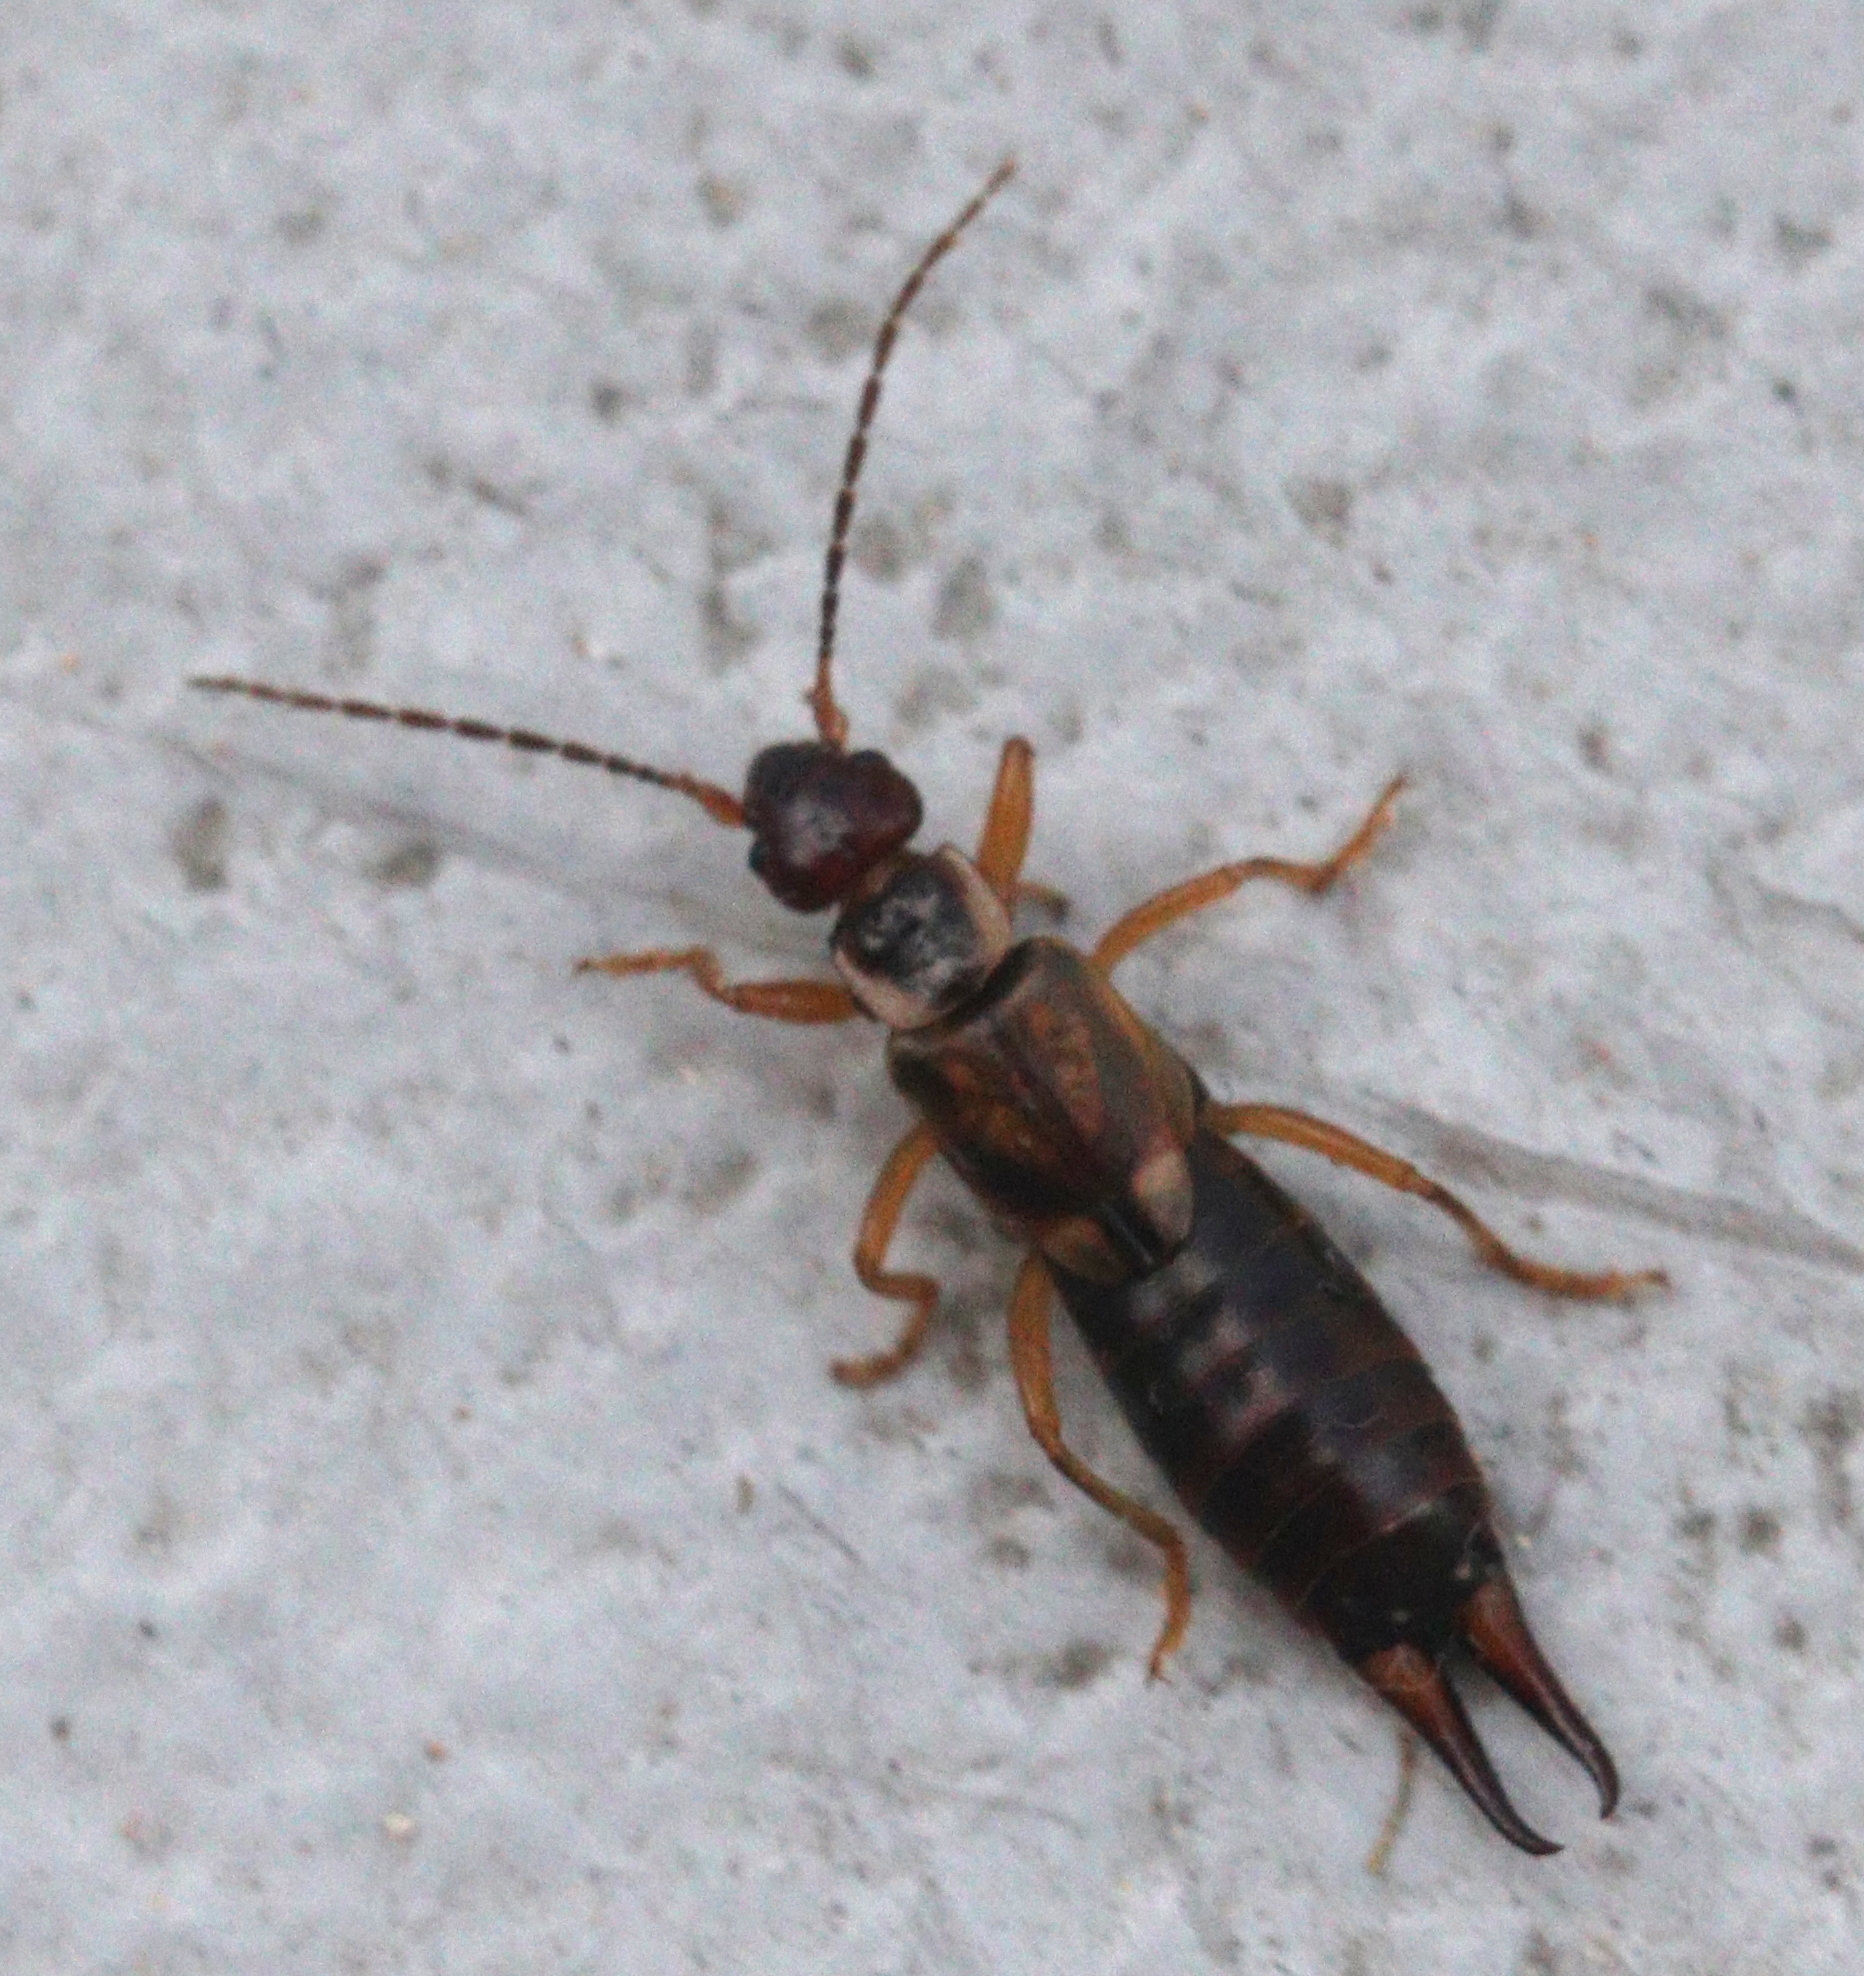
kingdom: Animalia
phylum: Arthropoda
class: Insecta
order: Dermaptera
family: Forficulidae
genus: Forficula
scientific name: Forficula
